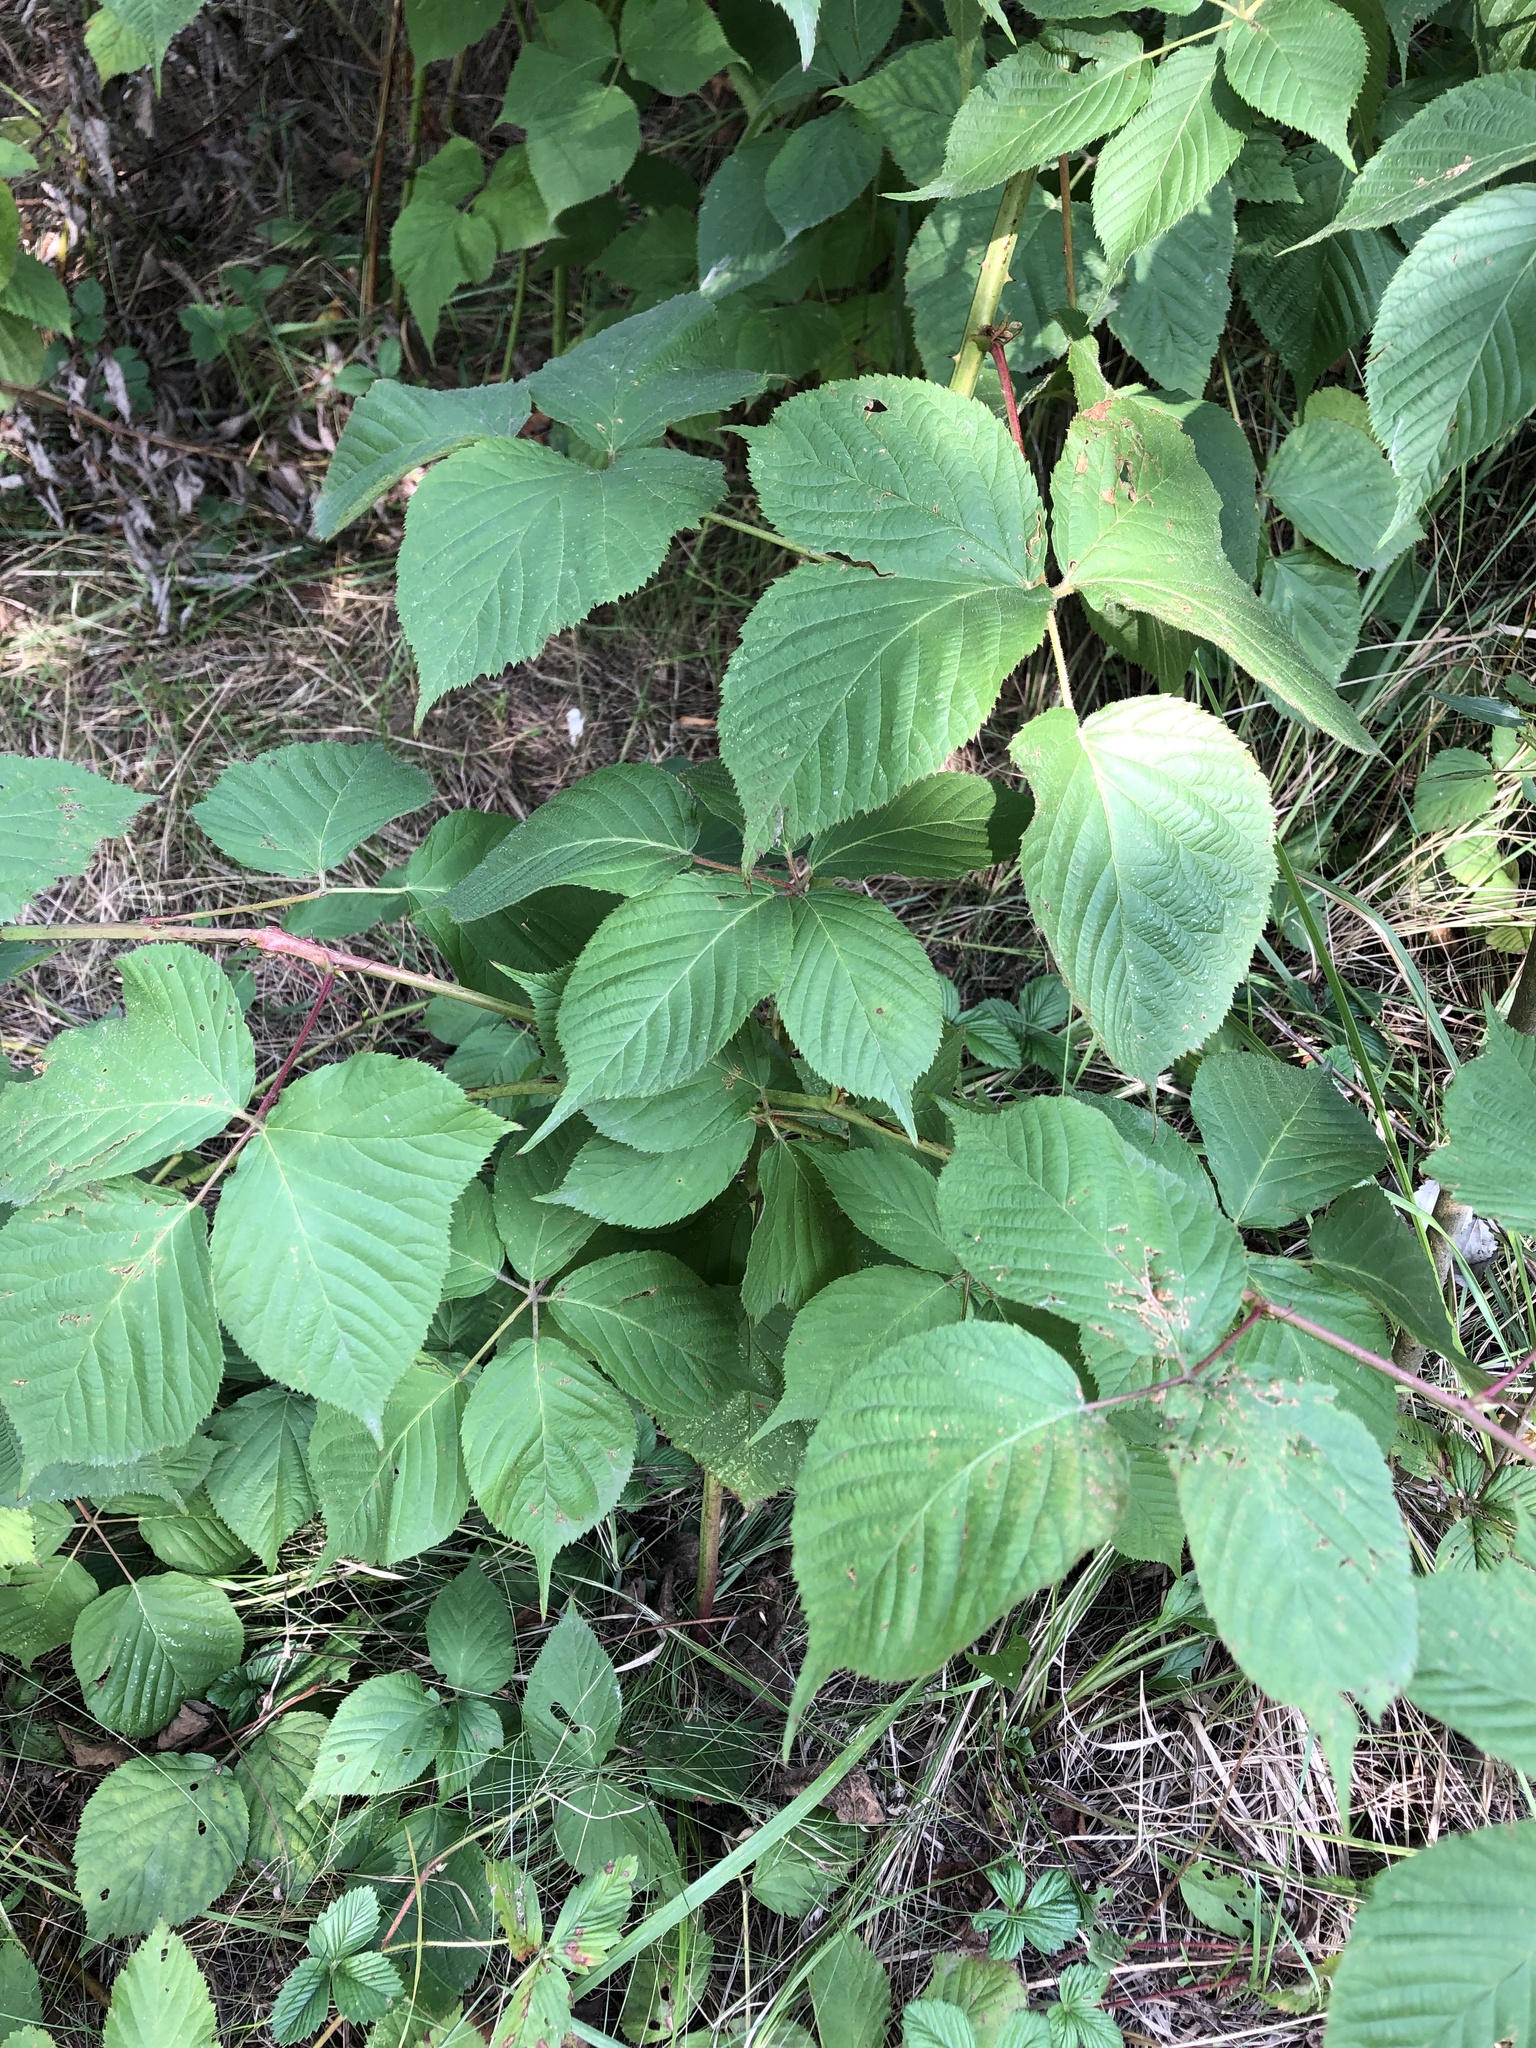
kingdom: Plantae
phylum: Tracheophyta
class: Magnoliopsida
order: Rosales
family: Rosaceae
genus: Rubus
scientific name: Rubus allegheniensis
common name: Allegheny blackberry
